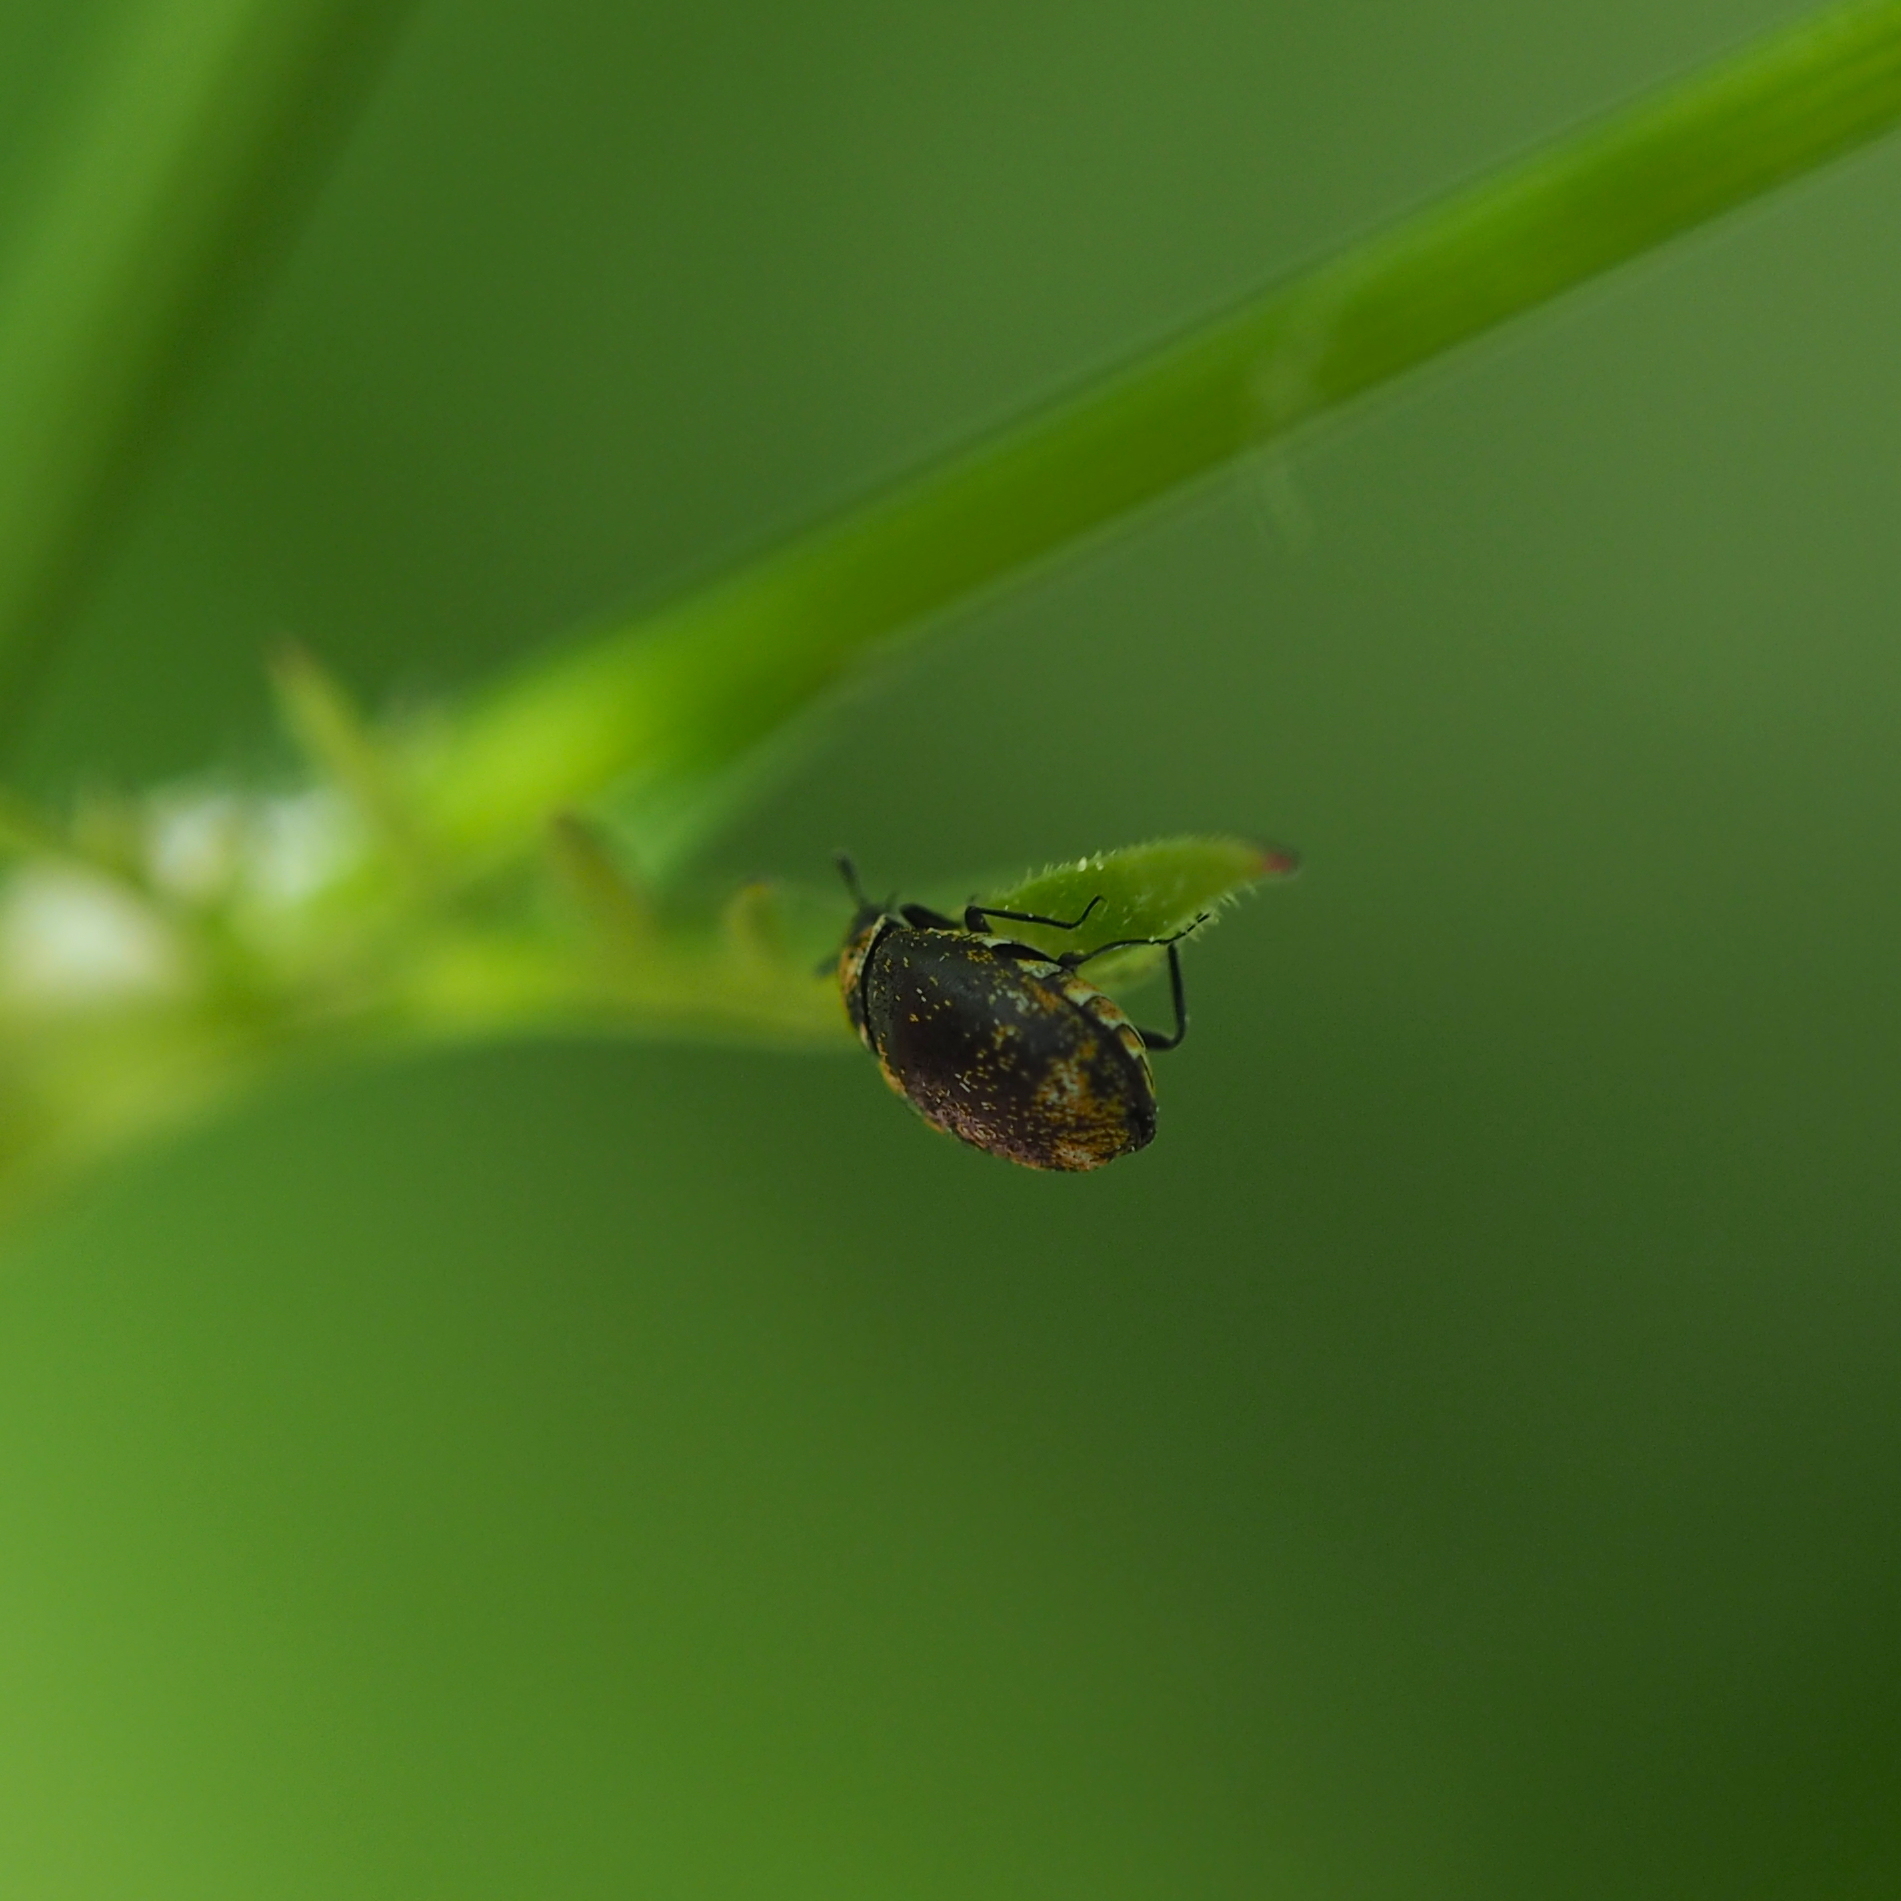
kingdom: Animalia
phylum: Arthropoda
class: Insecta
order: Coleoptera
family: Dermestidae
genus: Anthrenus
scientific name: Anthrenus museorum
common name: Museum beetle
